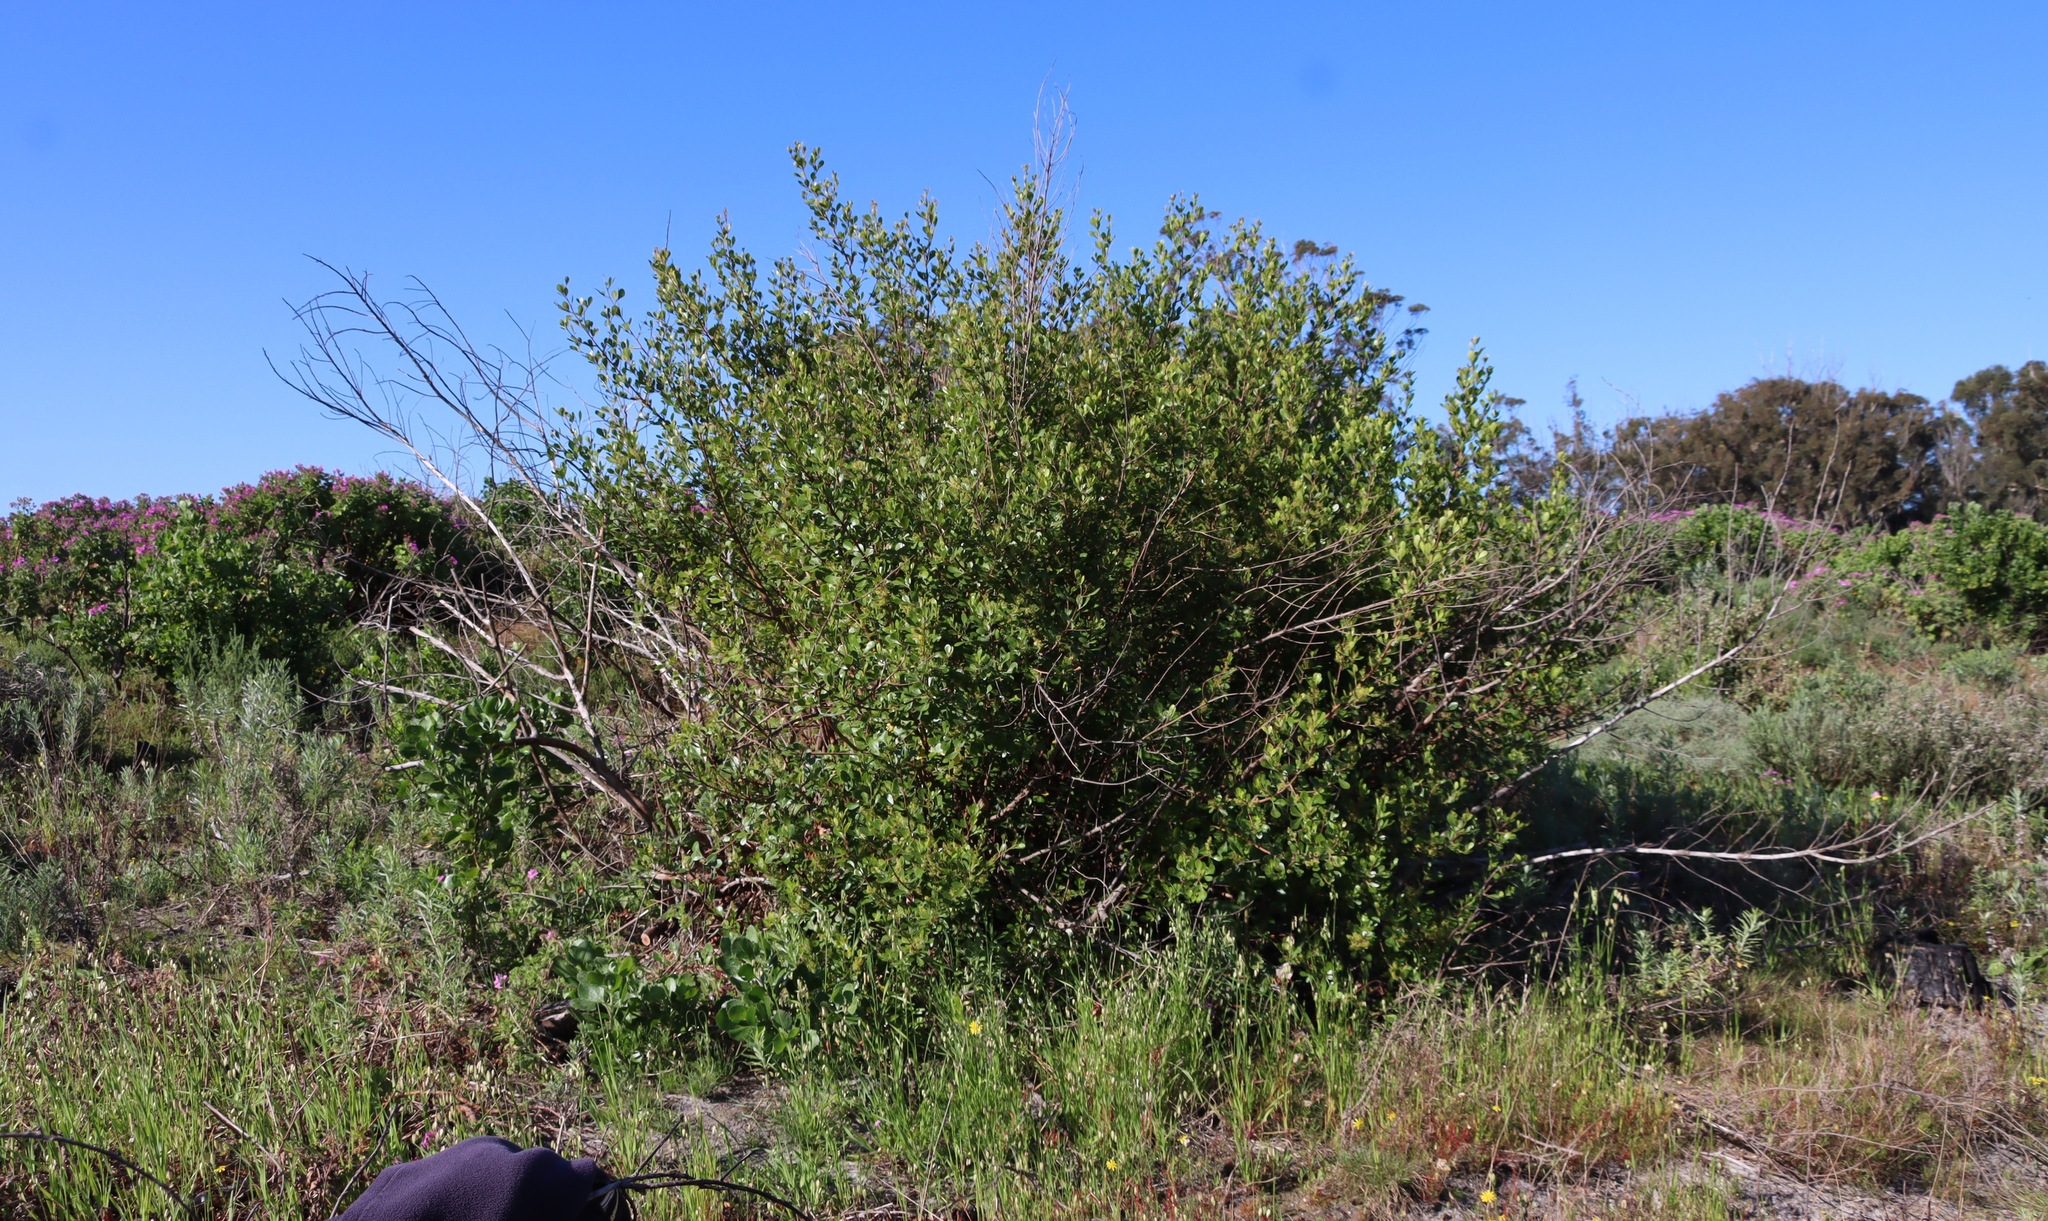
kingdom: Plantae
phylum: Tracheophyta
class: Magnoliopsida
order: Sapindales
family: Anacardiaceae
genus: Searsia
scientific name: Searsia lucida
